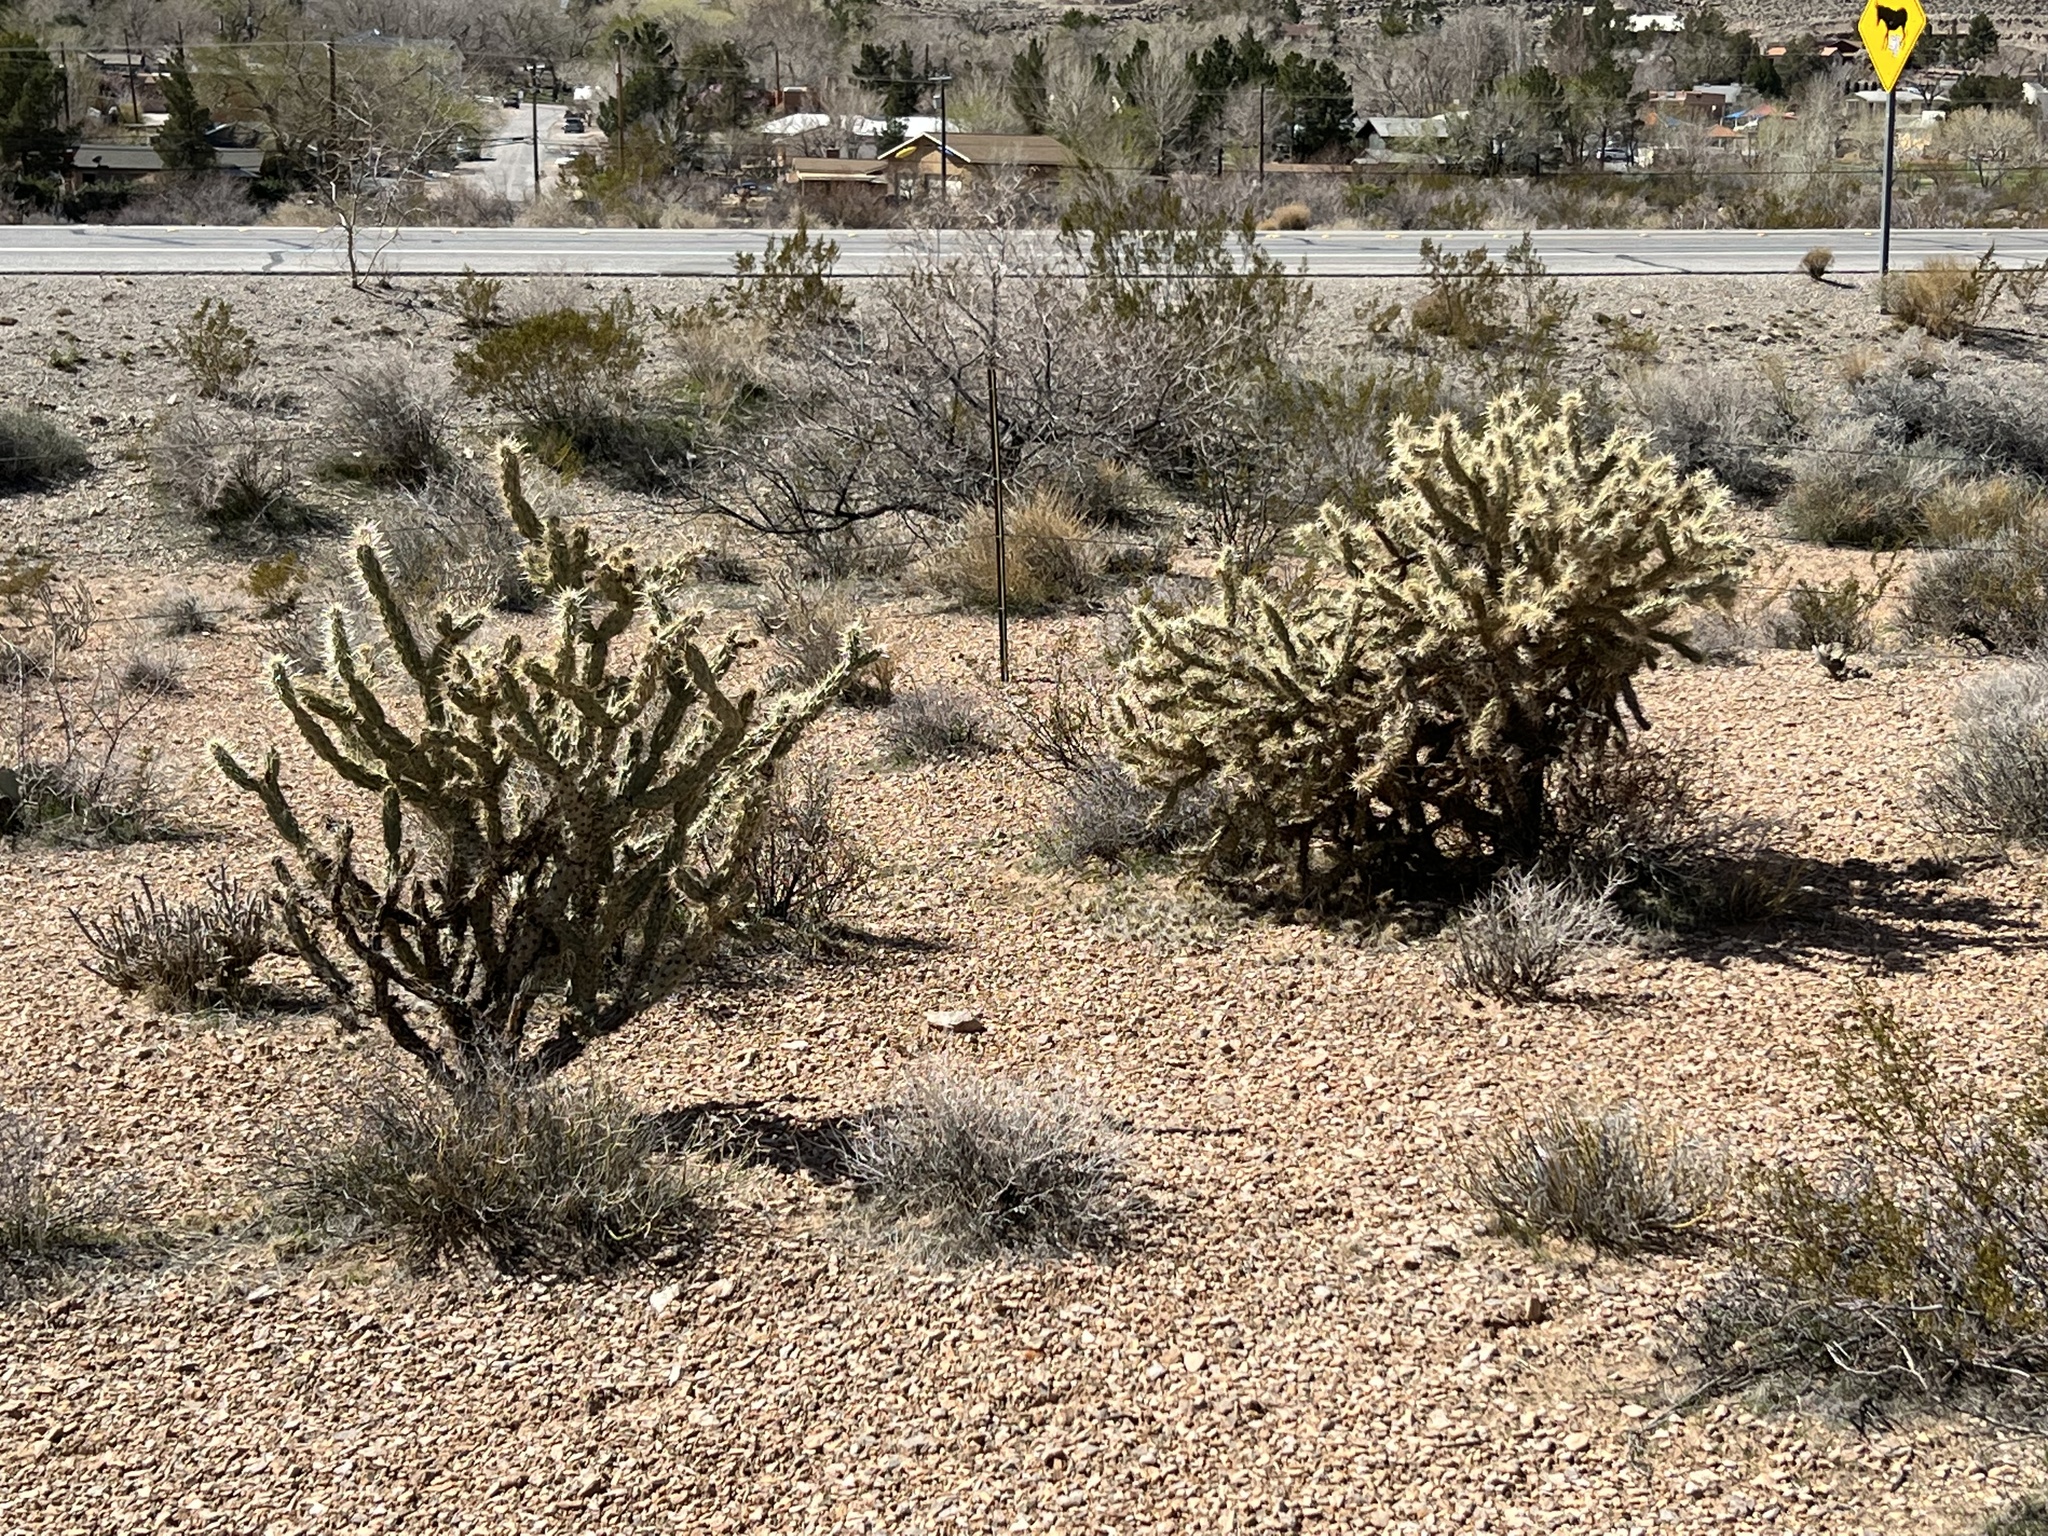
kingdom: Plantae
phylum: Tracheophyta
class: Magnoliopsida
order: Caryophyllales
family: Cactaceae
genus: Cylindropuntia
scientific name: Cylindropuntia acanthocarpa
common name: Buckhorn cholla
